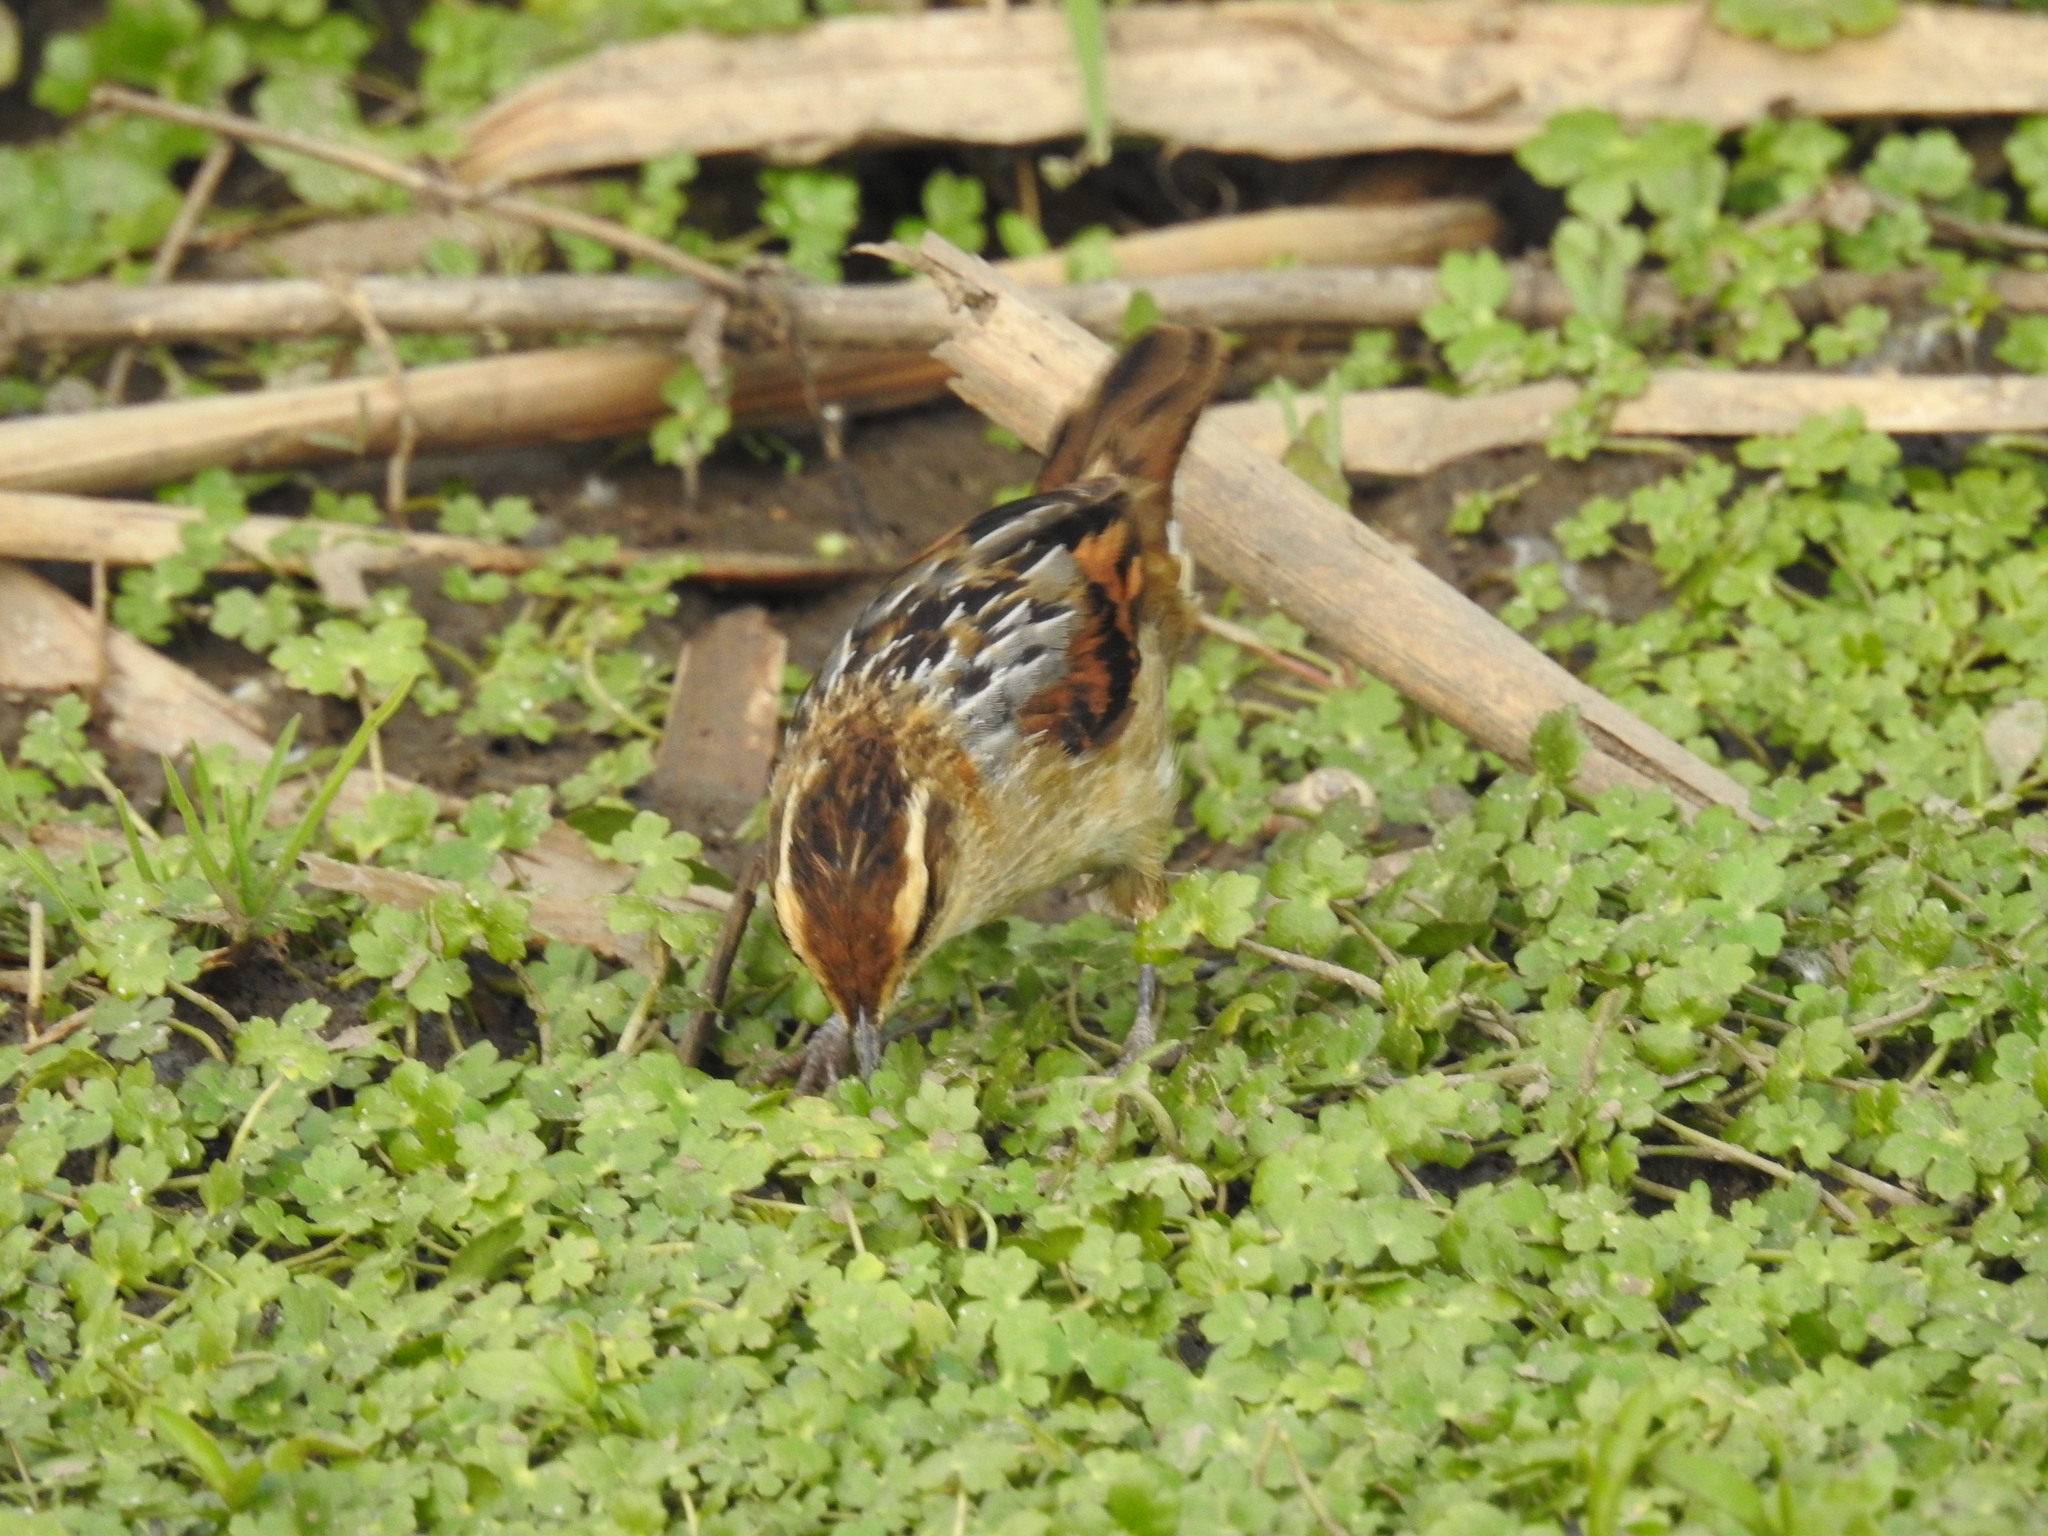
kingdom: Animalia
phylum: Chordata
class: Aves
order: Passeriformes
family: Furnariidae
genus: Phleocryptes
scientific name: Phleocryptes melanops
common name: Wren-like rushbird
